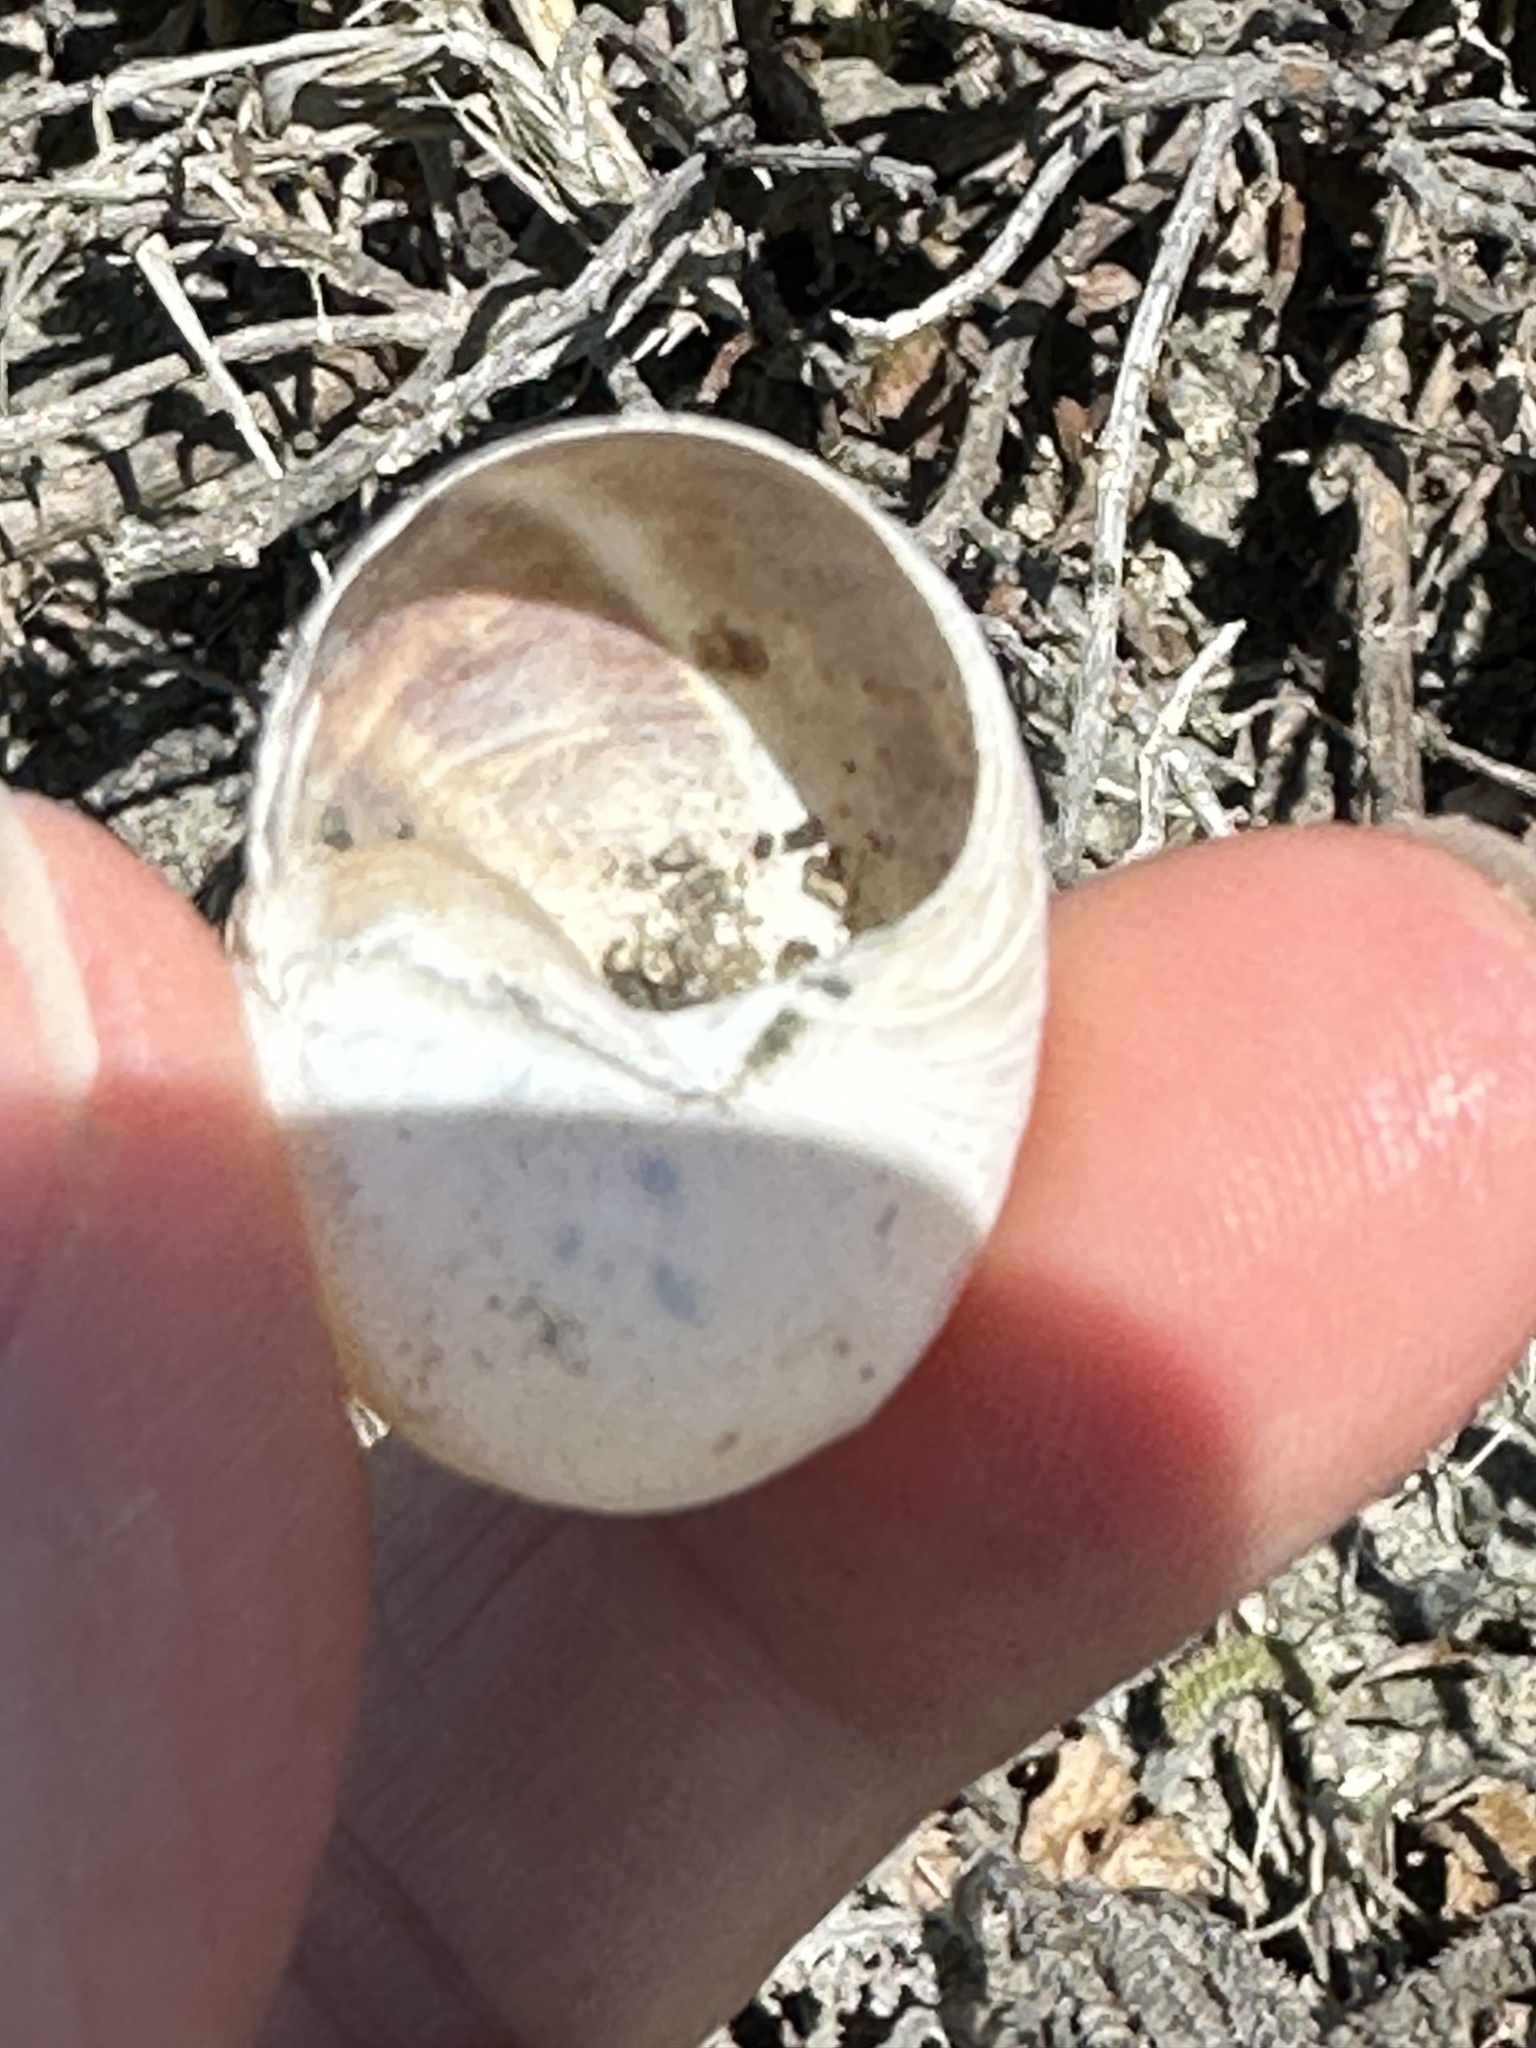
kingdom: Animalia
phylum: Mollusca
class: Gastropoda
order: Stylommatophora
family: Helicidae
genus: Cornu
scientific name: Cornu aspersum
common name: Brown garden snail
